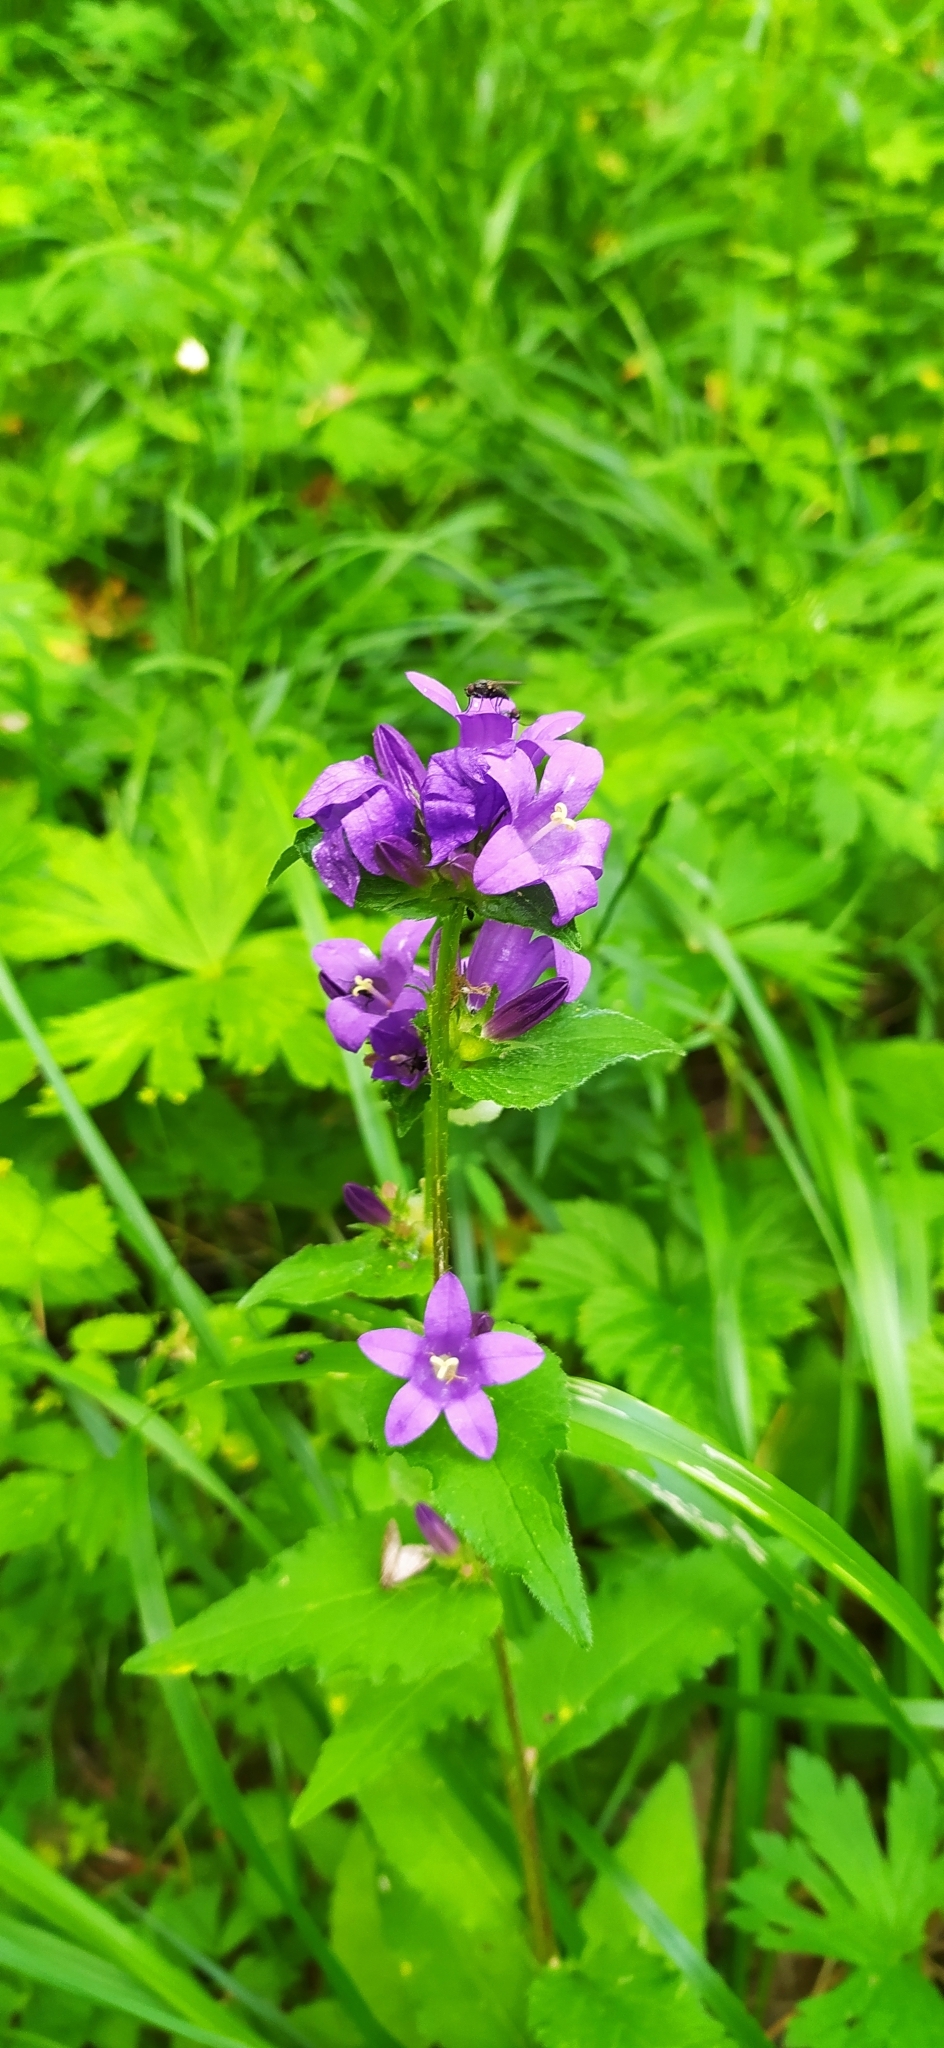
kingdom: Plantae
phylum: Tracheophyta
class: Magnoliopsida
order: Asterales
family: Campanulaceae
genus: Campanula
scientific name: Campanula glomerata
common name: Clustered bellflower
